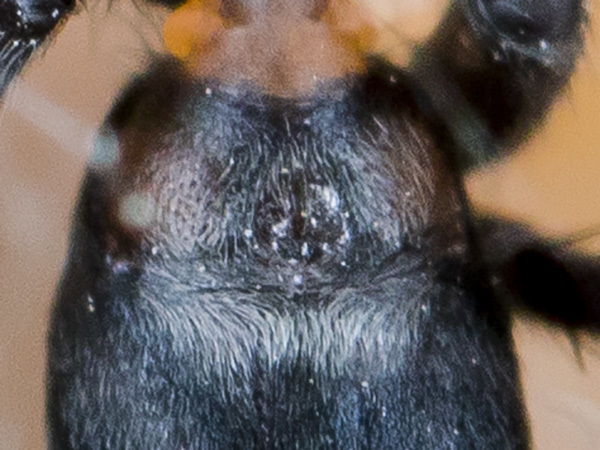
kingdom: Animalia
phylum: Arthropoda
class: Arachnida
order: Araneae
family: Gnaphosidae
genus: Aphantaulax
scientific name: Aphantaulax trifasciata
